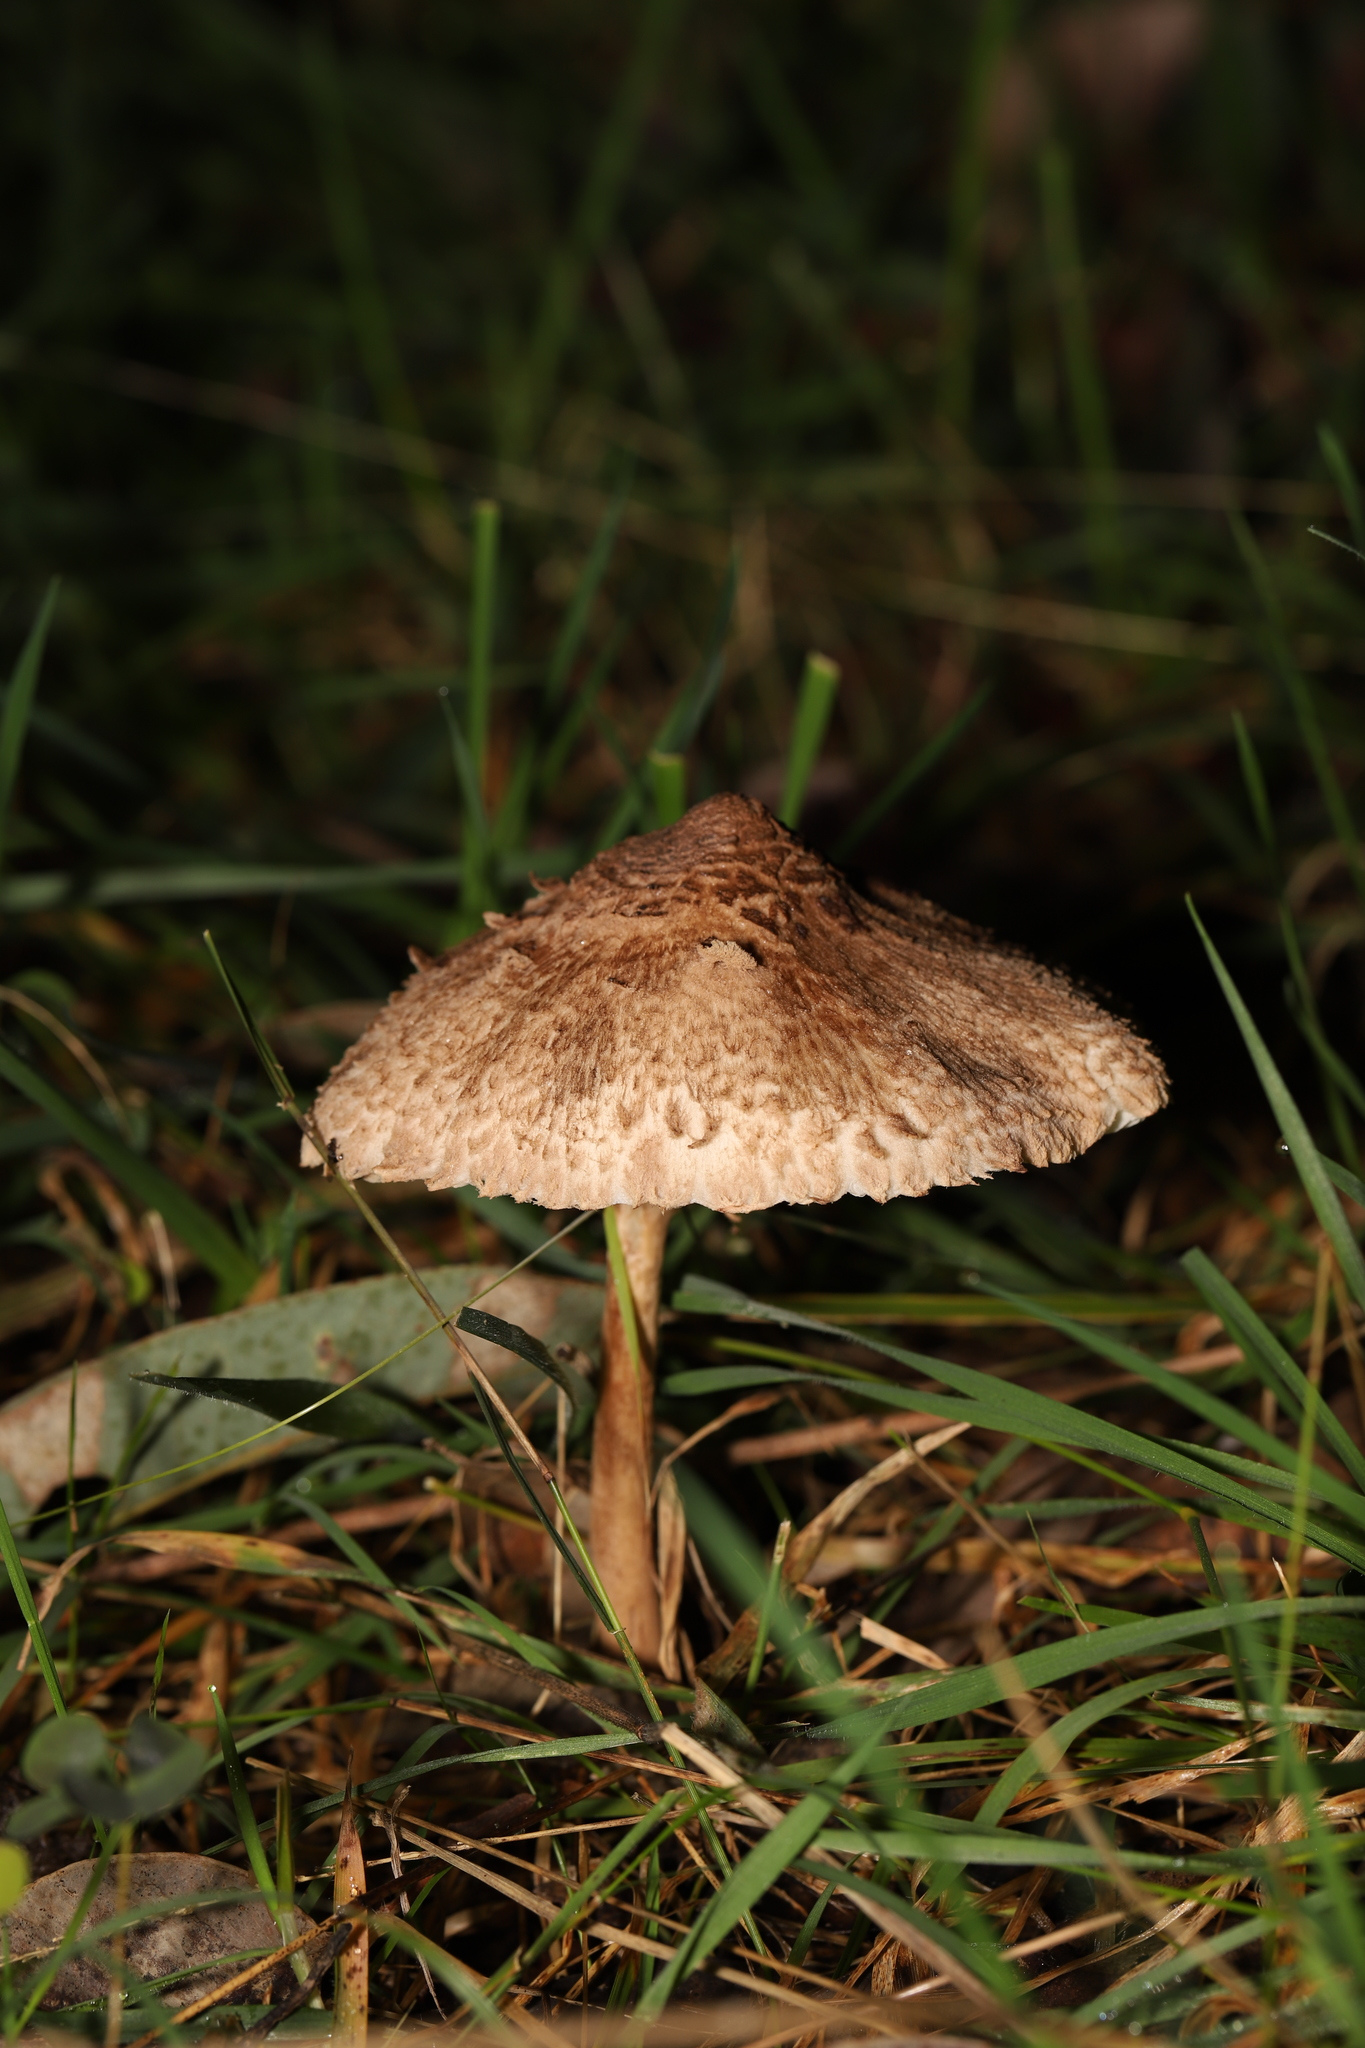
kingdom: Fungi
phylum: Basidiomycota
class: Agaricomycetes
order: Agaricales
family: Agaricaceae
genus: Macrolepiota
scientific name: Macrolepiota clelandii
